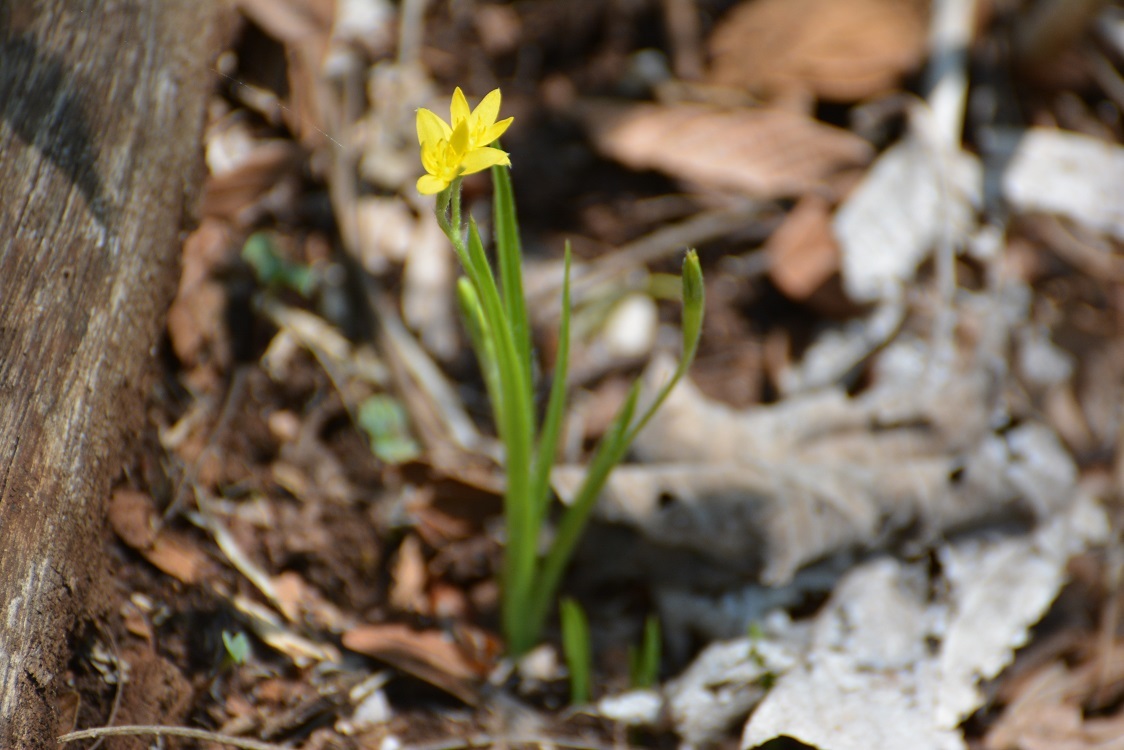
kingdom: Plantae
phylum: Tracheophyta
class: Liliopsida
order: Asparagales
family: Hypoxidaceae
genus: Hypoxis
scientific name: Hypoxis decumbens
